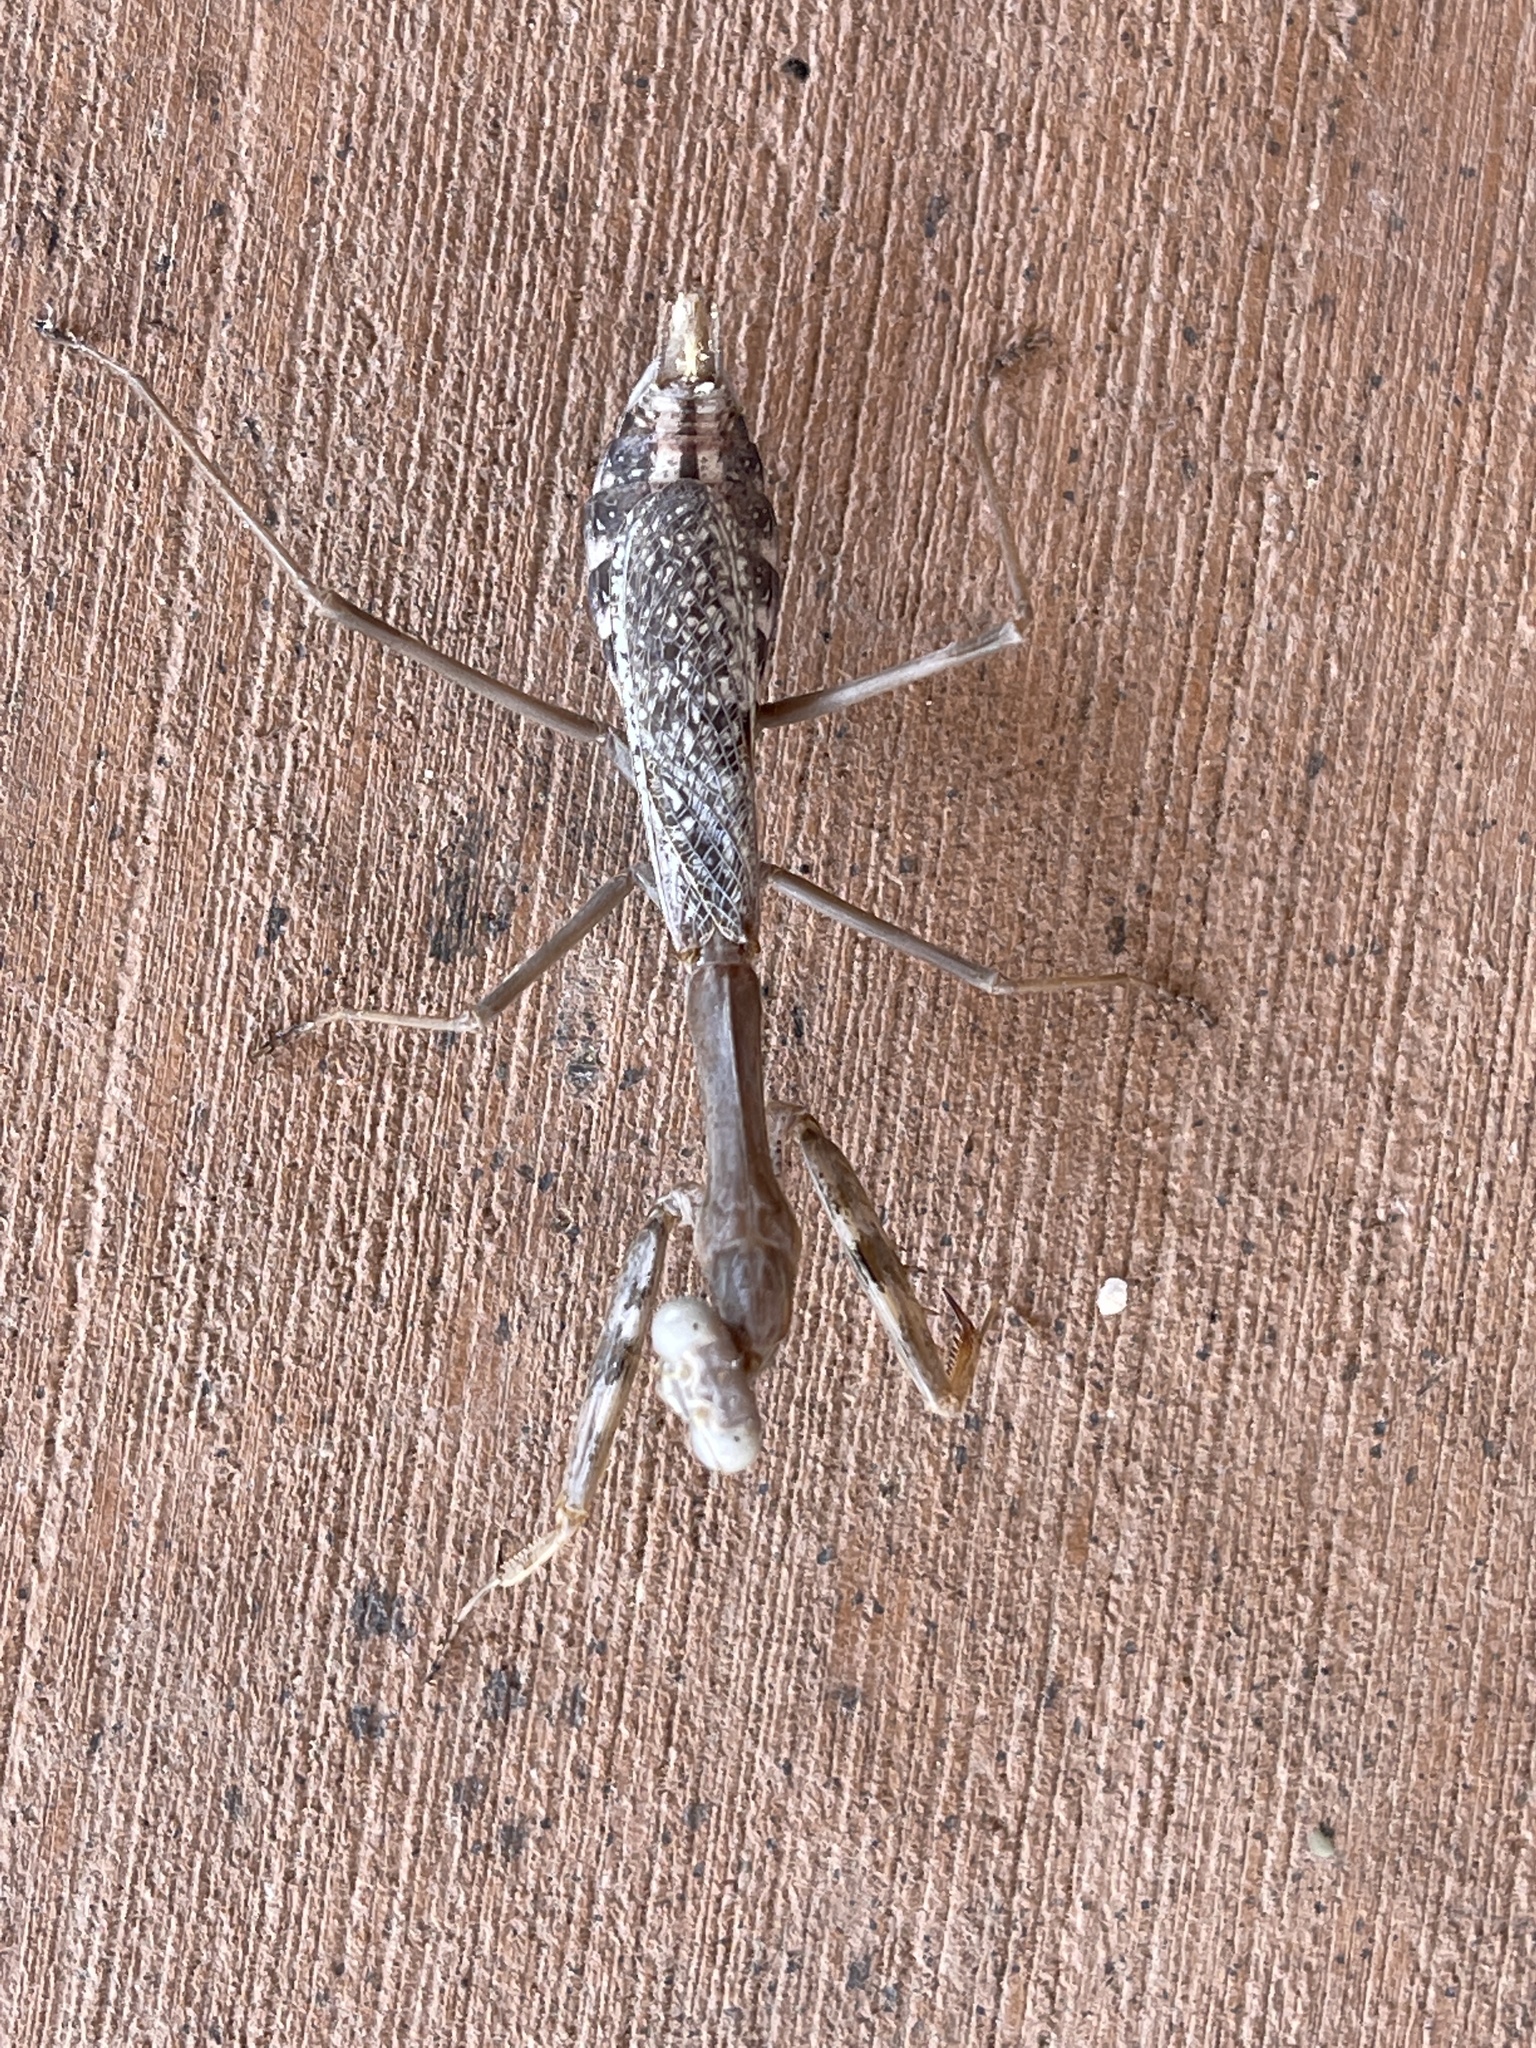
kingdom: Animalia
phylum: Arthropoda
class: Insecta
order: Mantodea
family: Mantidae
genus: Stagmomantis
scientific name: Stagmomantis californica
